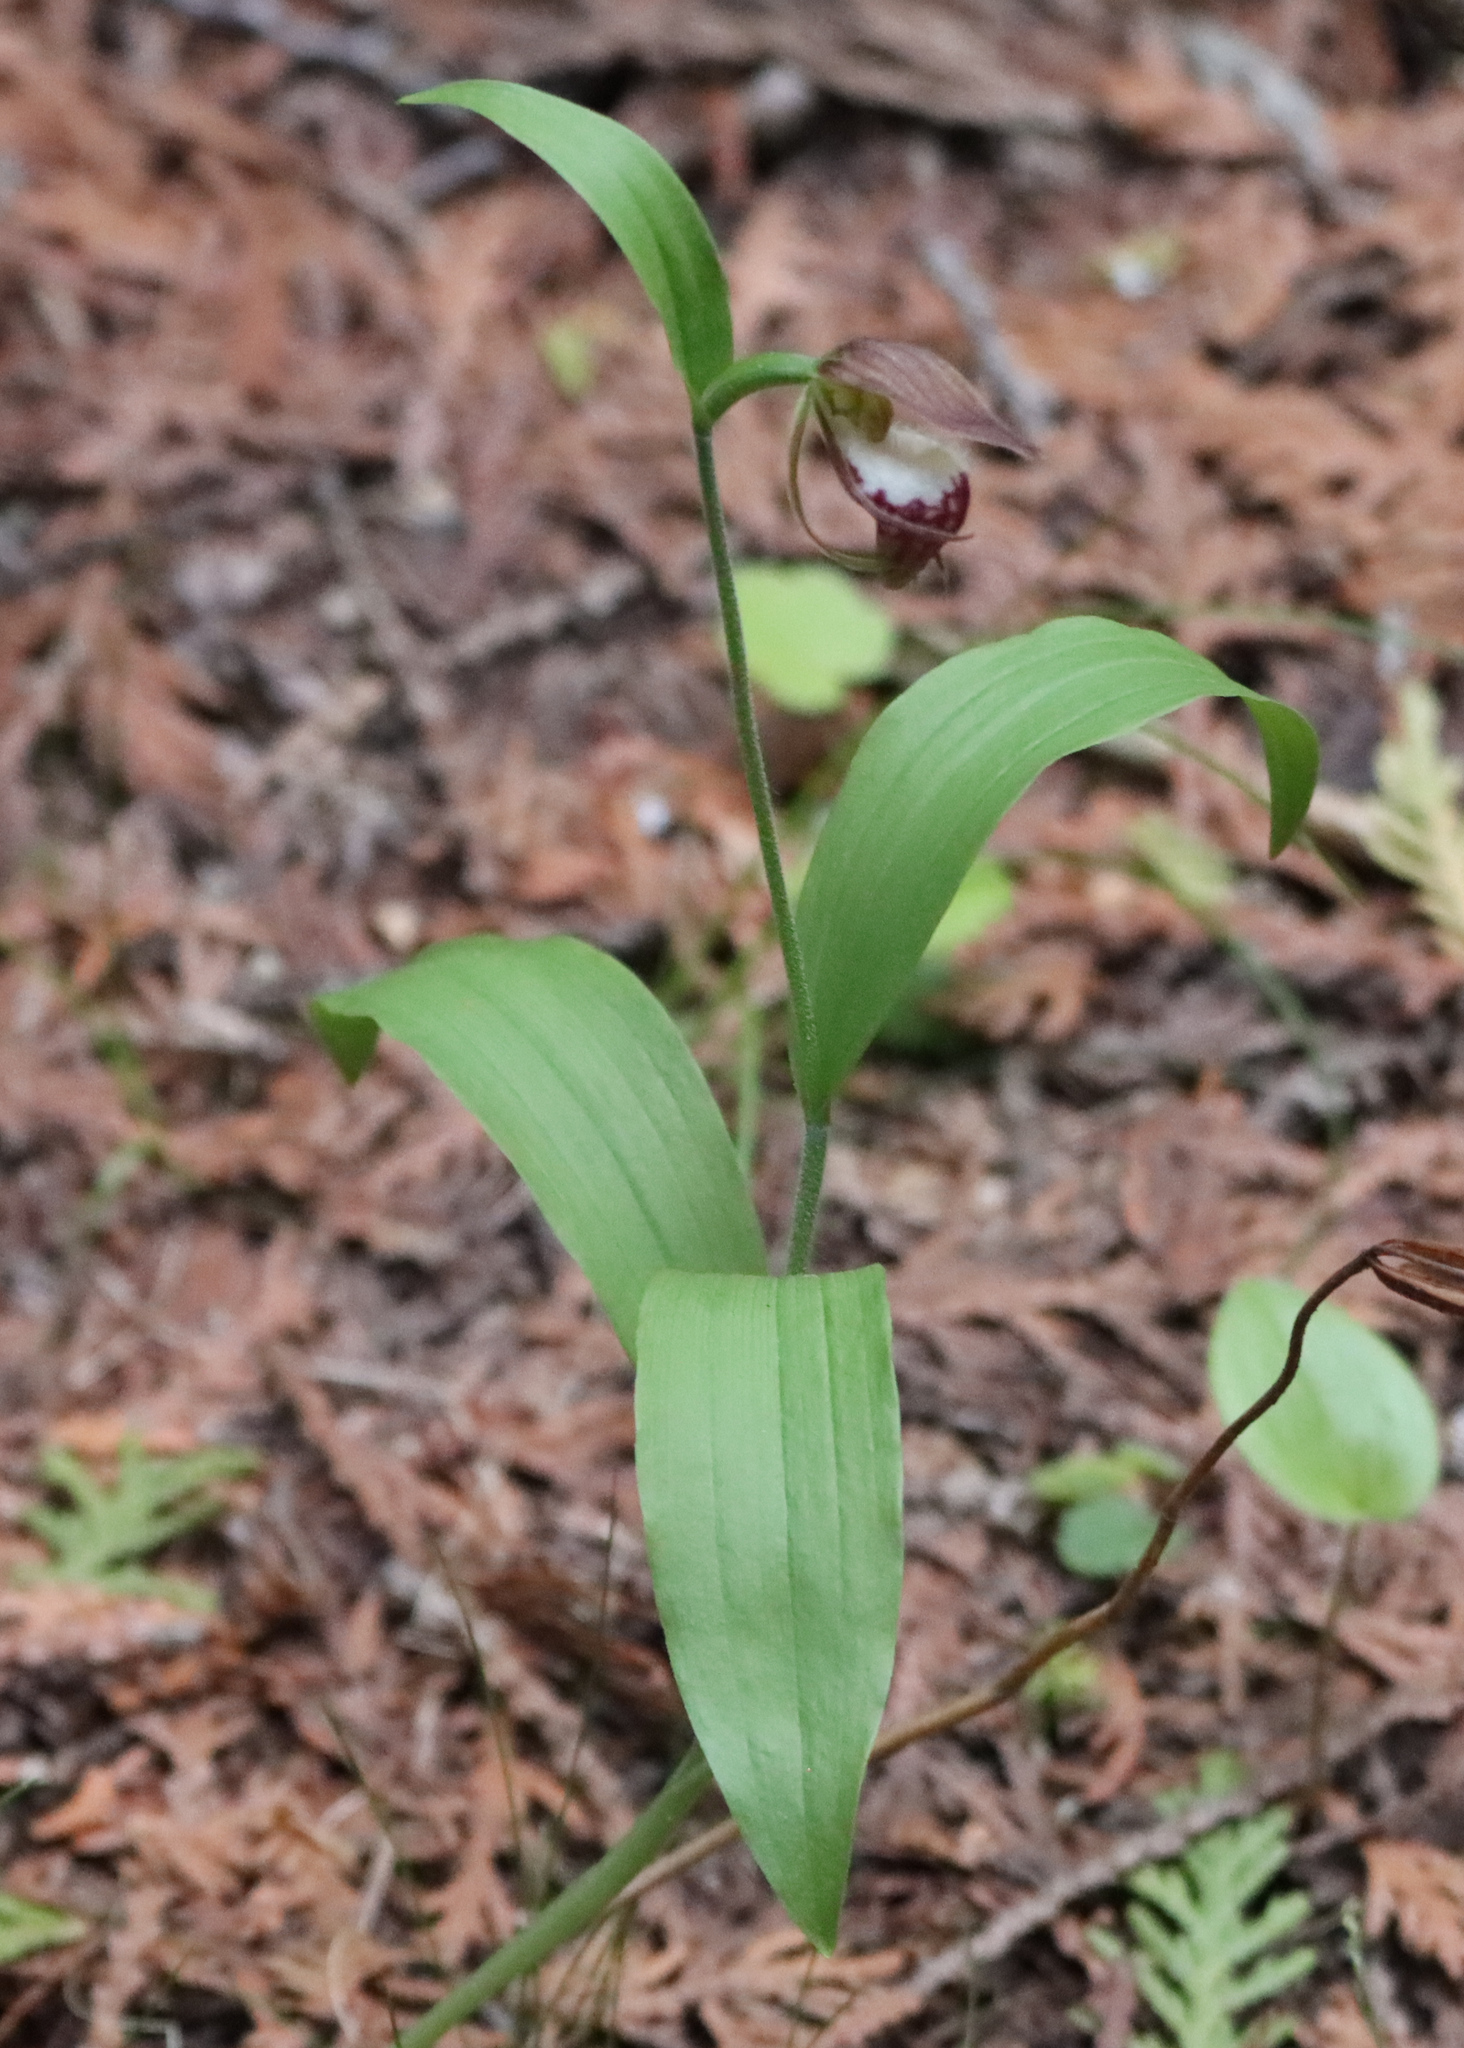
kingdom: Plantae
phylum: Tracheophyta
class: Liliopsida
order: Asparagales
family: Orchidaceae
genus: Cypripedium
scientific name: Cypripedium arietinum
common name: Ram's-head
